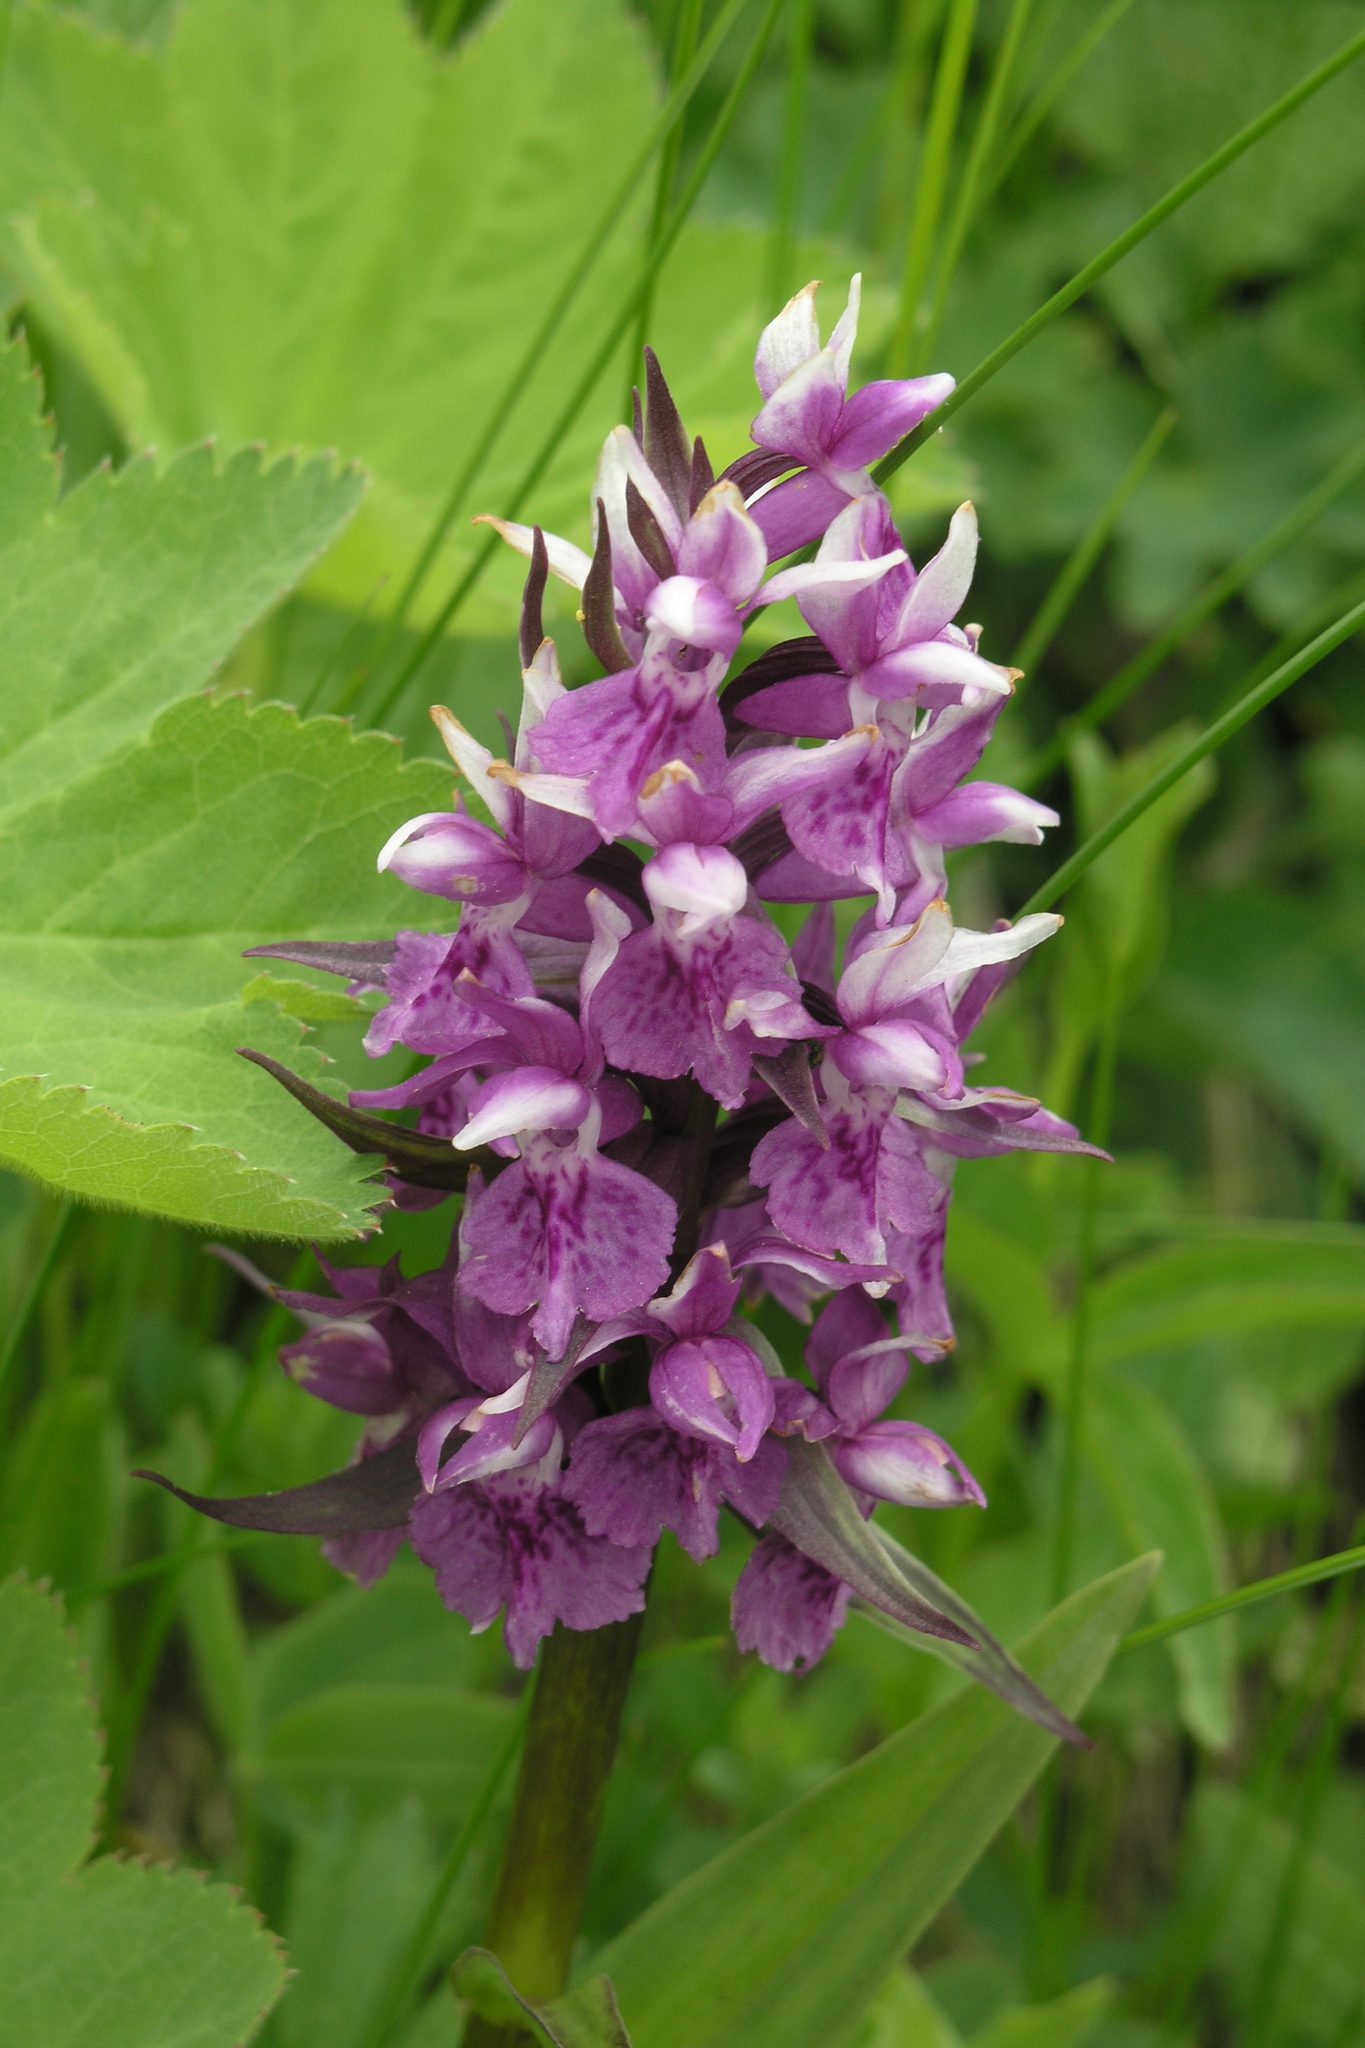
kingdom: Plantae
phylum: Tracheophyta
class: Liliopsida
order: Asparagales
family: Orchidaceae
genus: Dactylorhiza
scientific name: Dactylorhiza urvilleana
